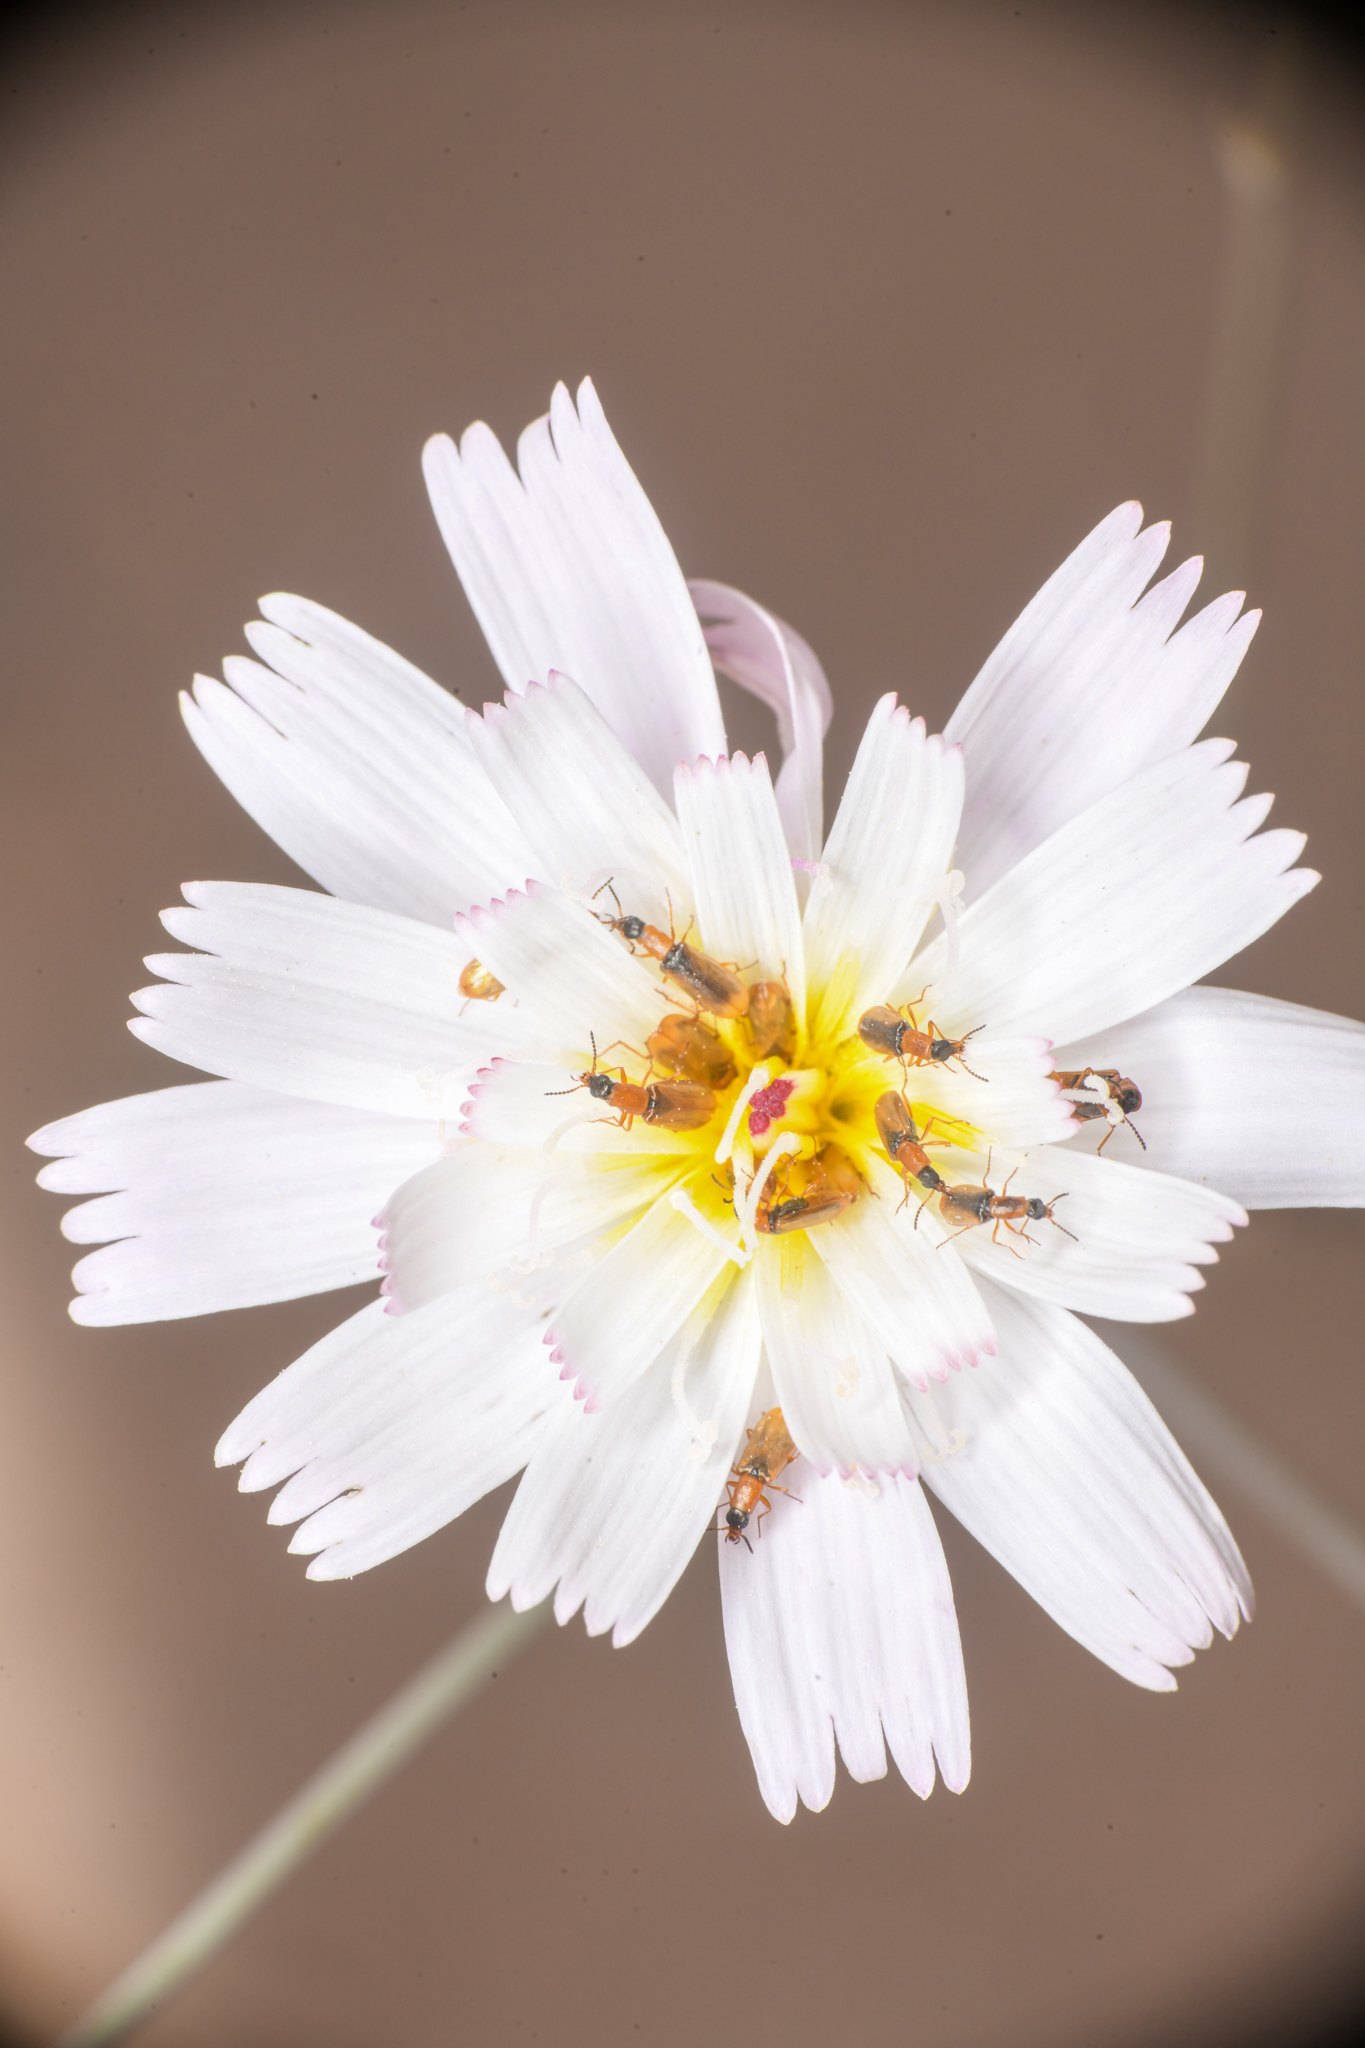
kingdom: Plantae
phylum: Tracheophyta
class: Magnoliopsida
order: Asterales
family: Asteraceae
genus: Atrichoseris
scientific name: Atrichoseris platyphylla
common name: Tobaccoweed
